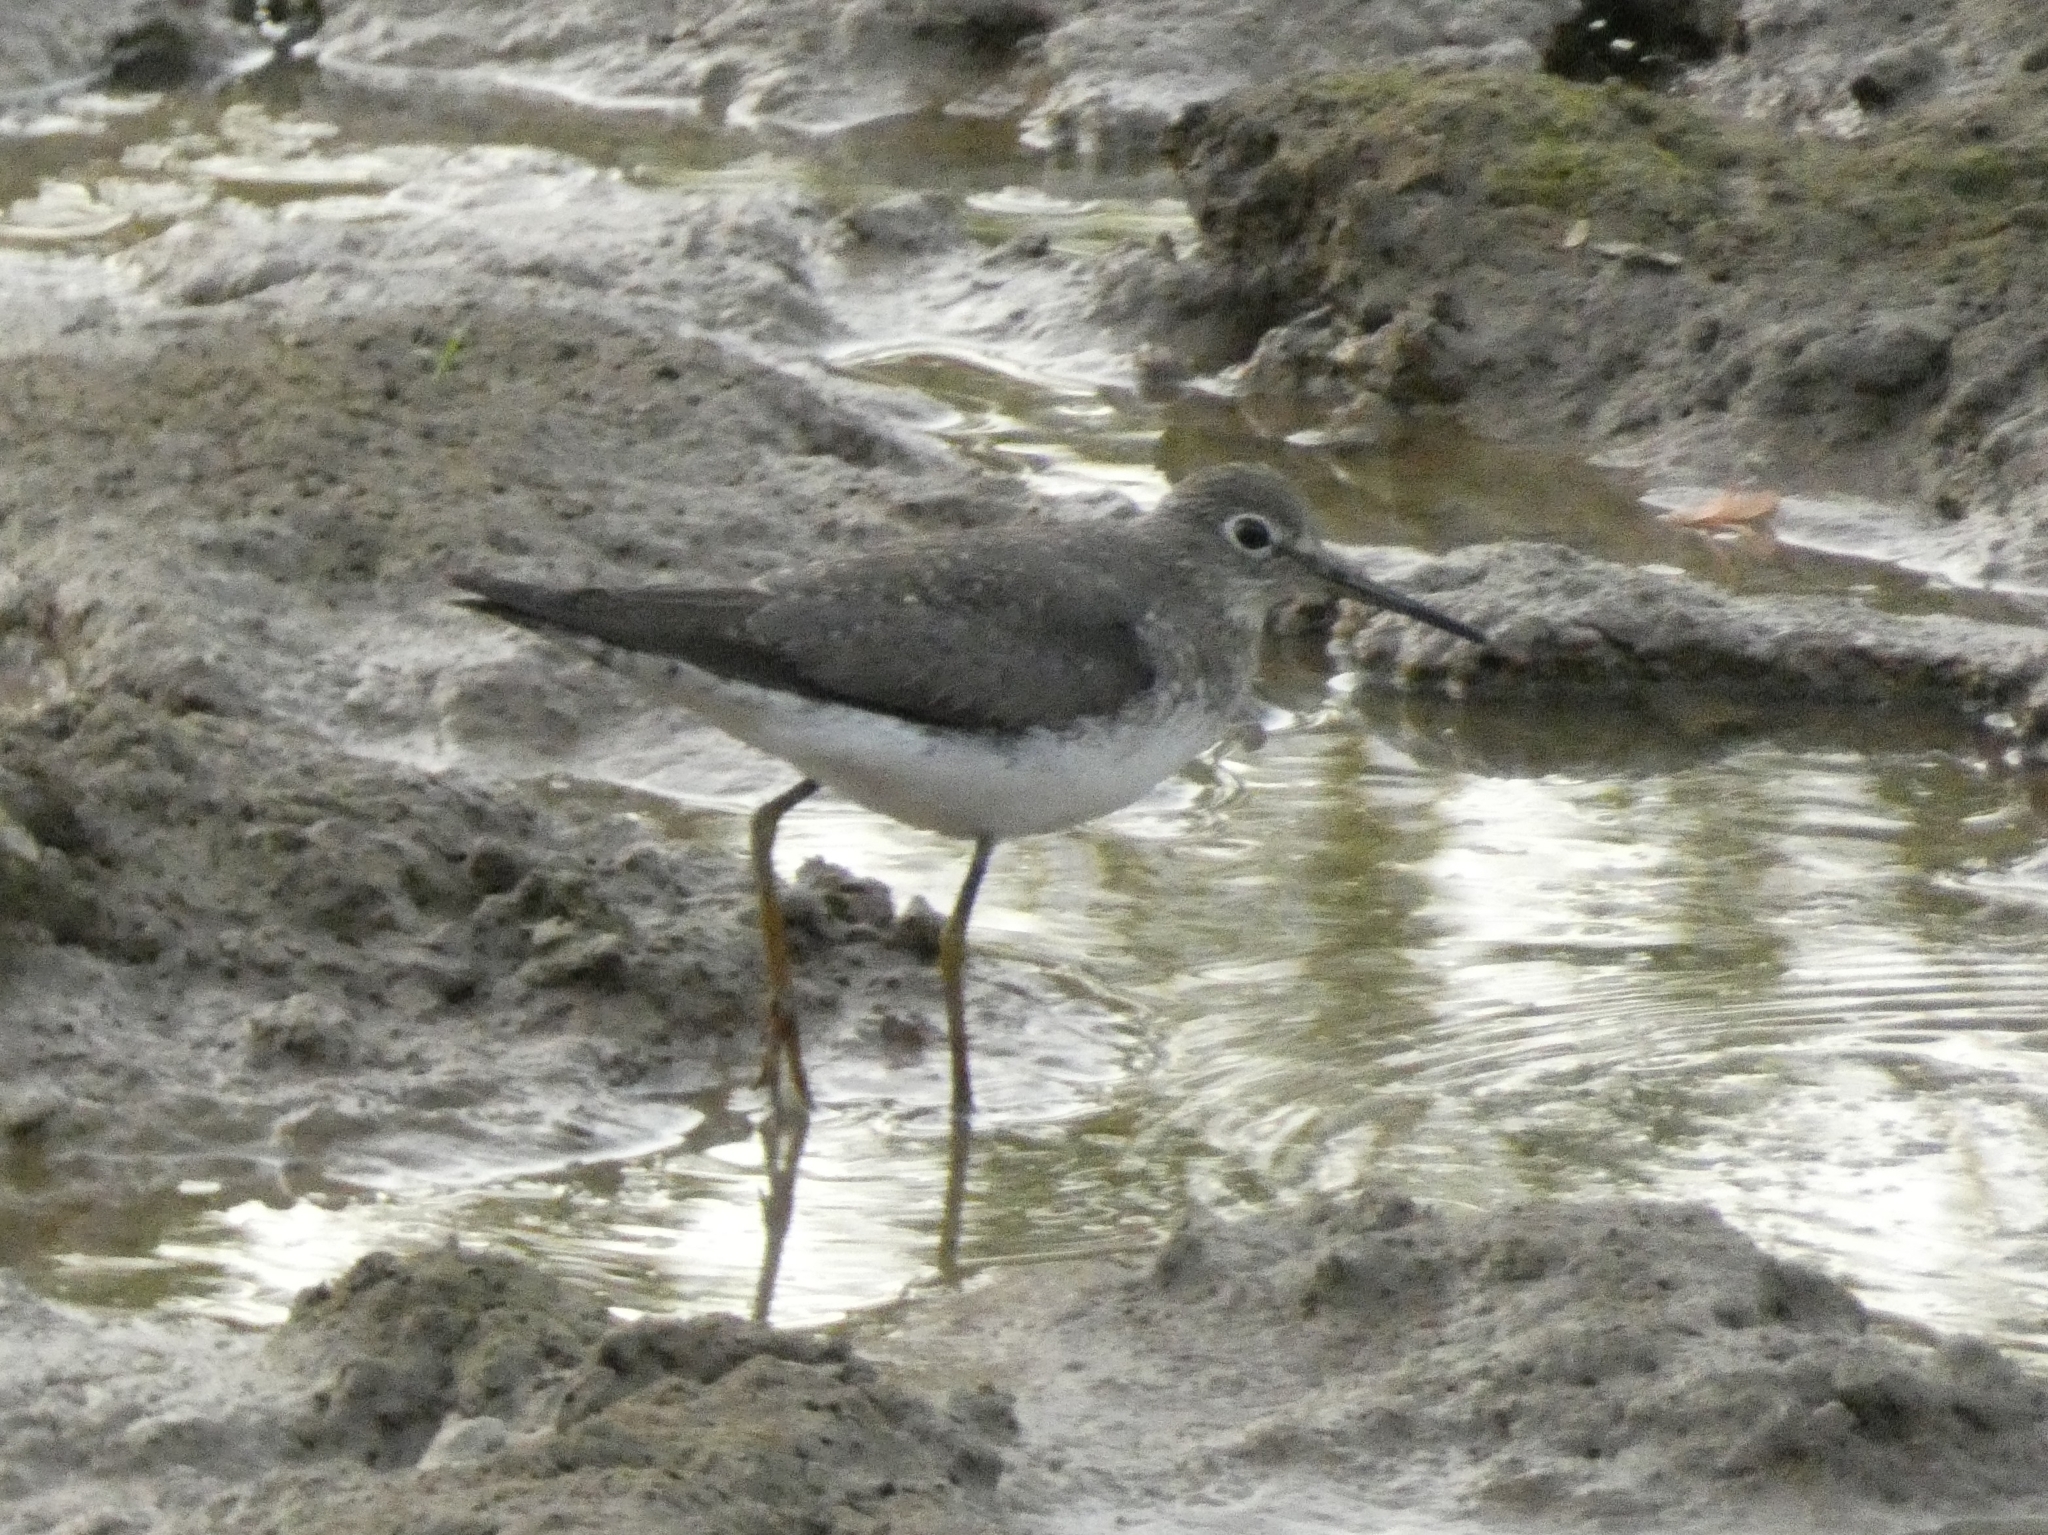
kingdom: Animalia
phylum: Chordata
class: Aves
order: Charadriiformes
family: Scolopacidae
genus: Tringa
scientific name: Tringa solitaria
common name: Solitary sandpiper
